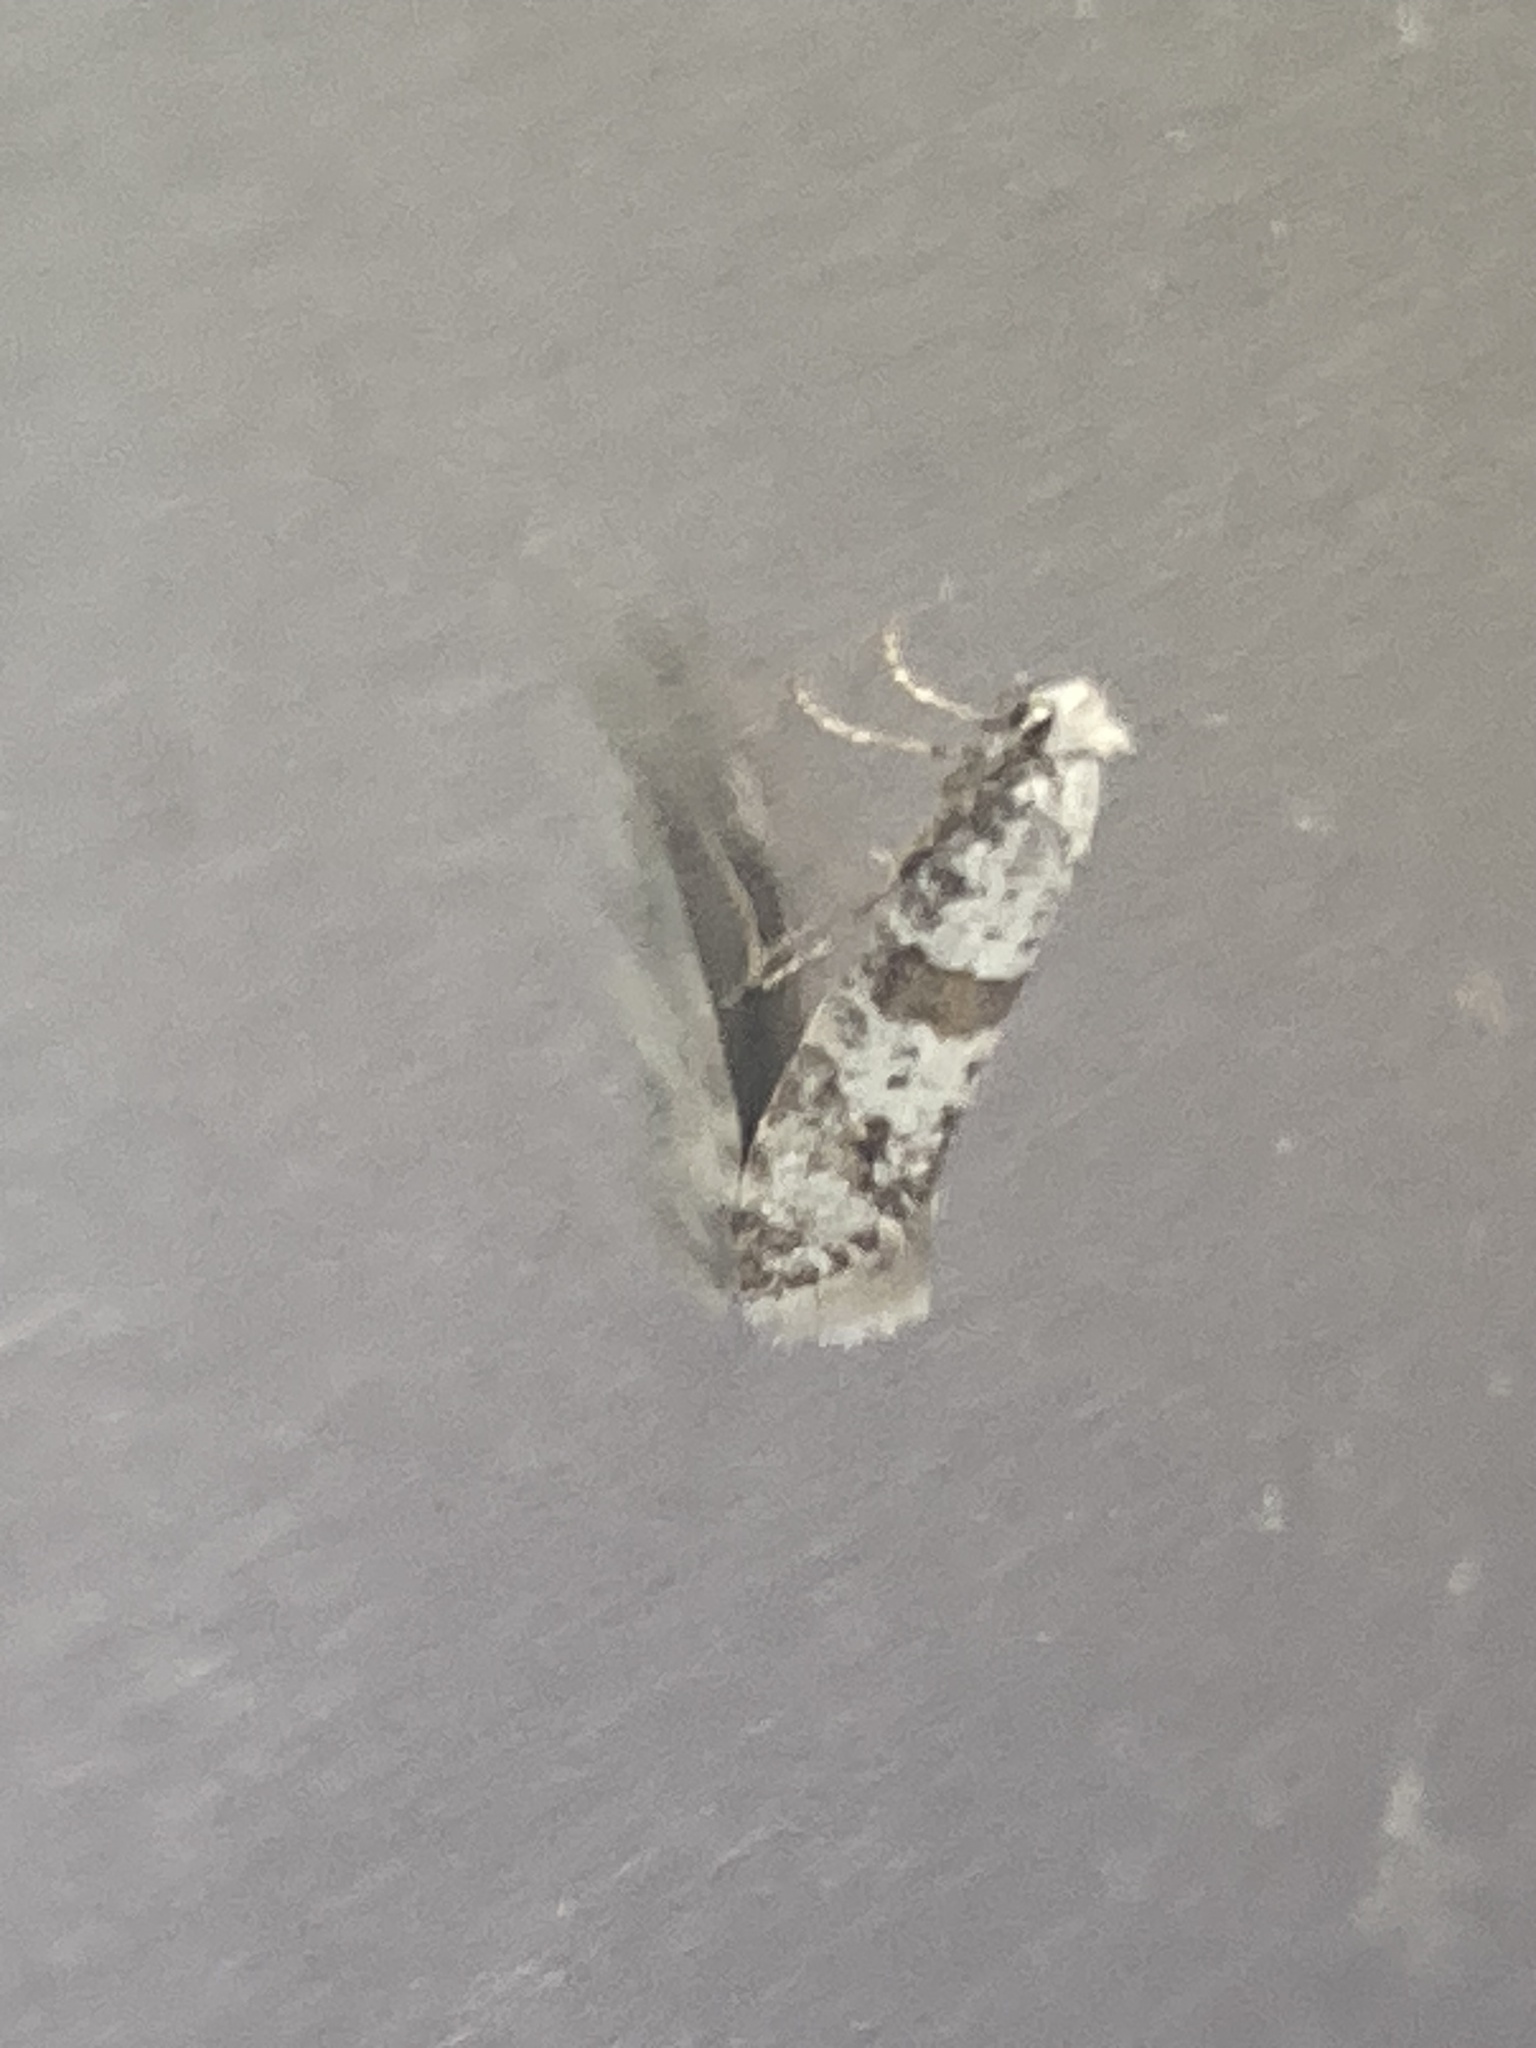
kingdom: Animalia
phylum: Arthropoda
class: Insecta
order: Lepidoptera
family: Yponomeutidae
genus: Scythropia
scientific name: Scythropia crataegella
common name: Hawthorn moth
